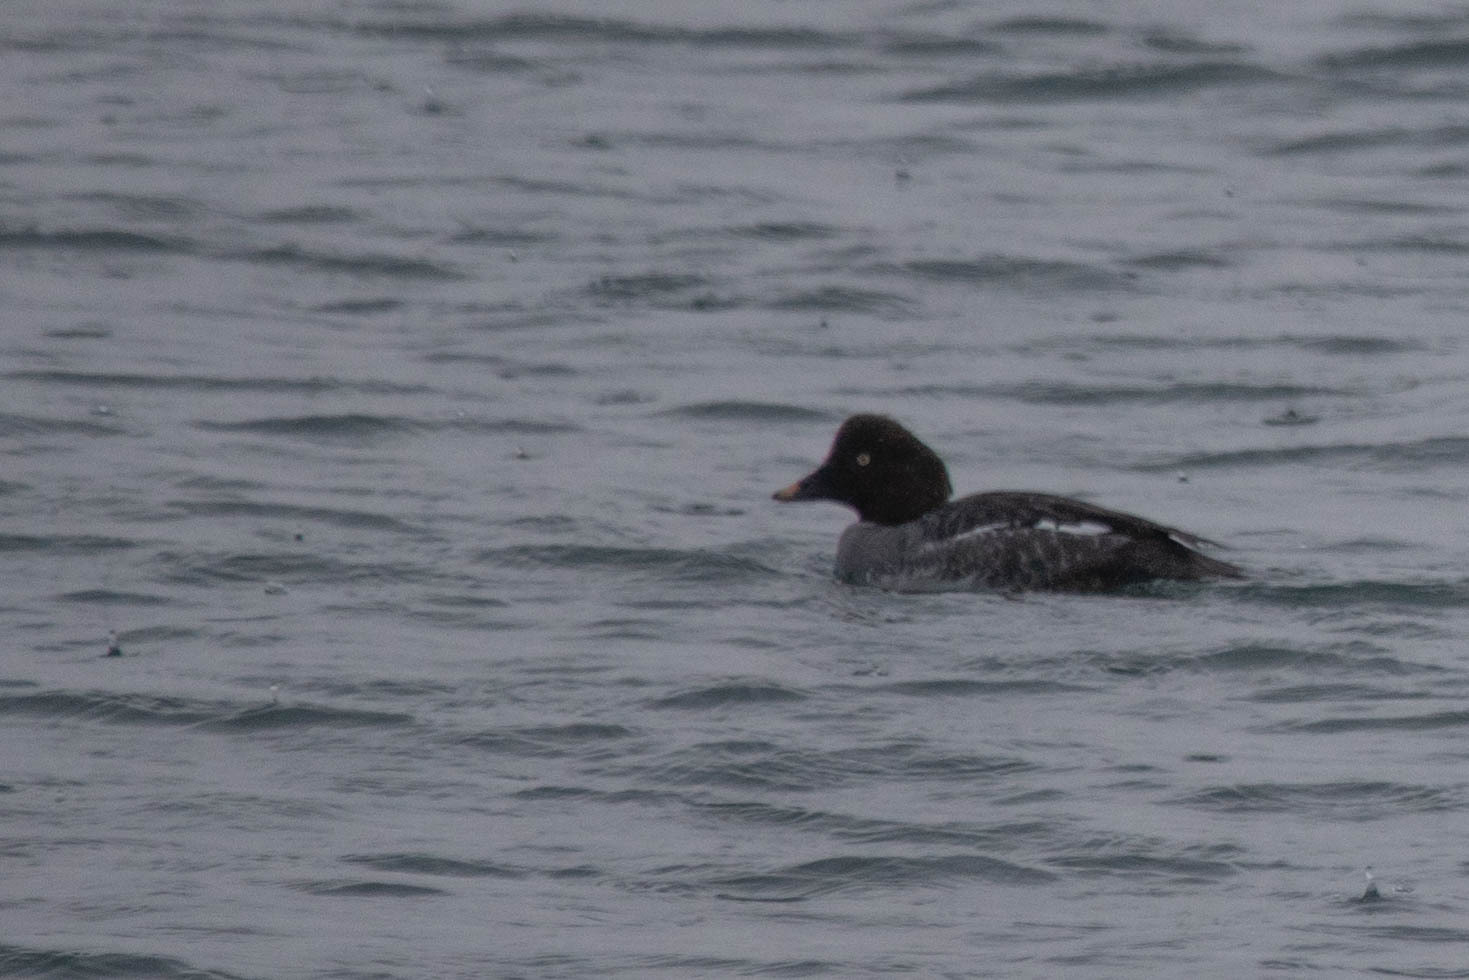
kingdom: Animalia
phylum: Chordata
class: Aves
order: Anseriformes
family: Anatidae
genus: Bucephala
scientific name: Bucephala clangula
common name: Common goldeneye
